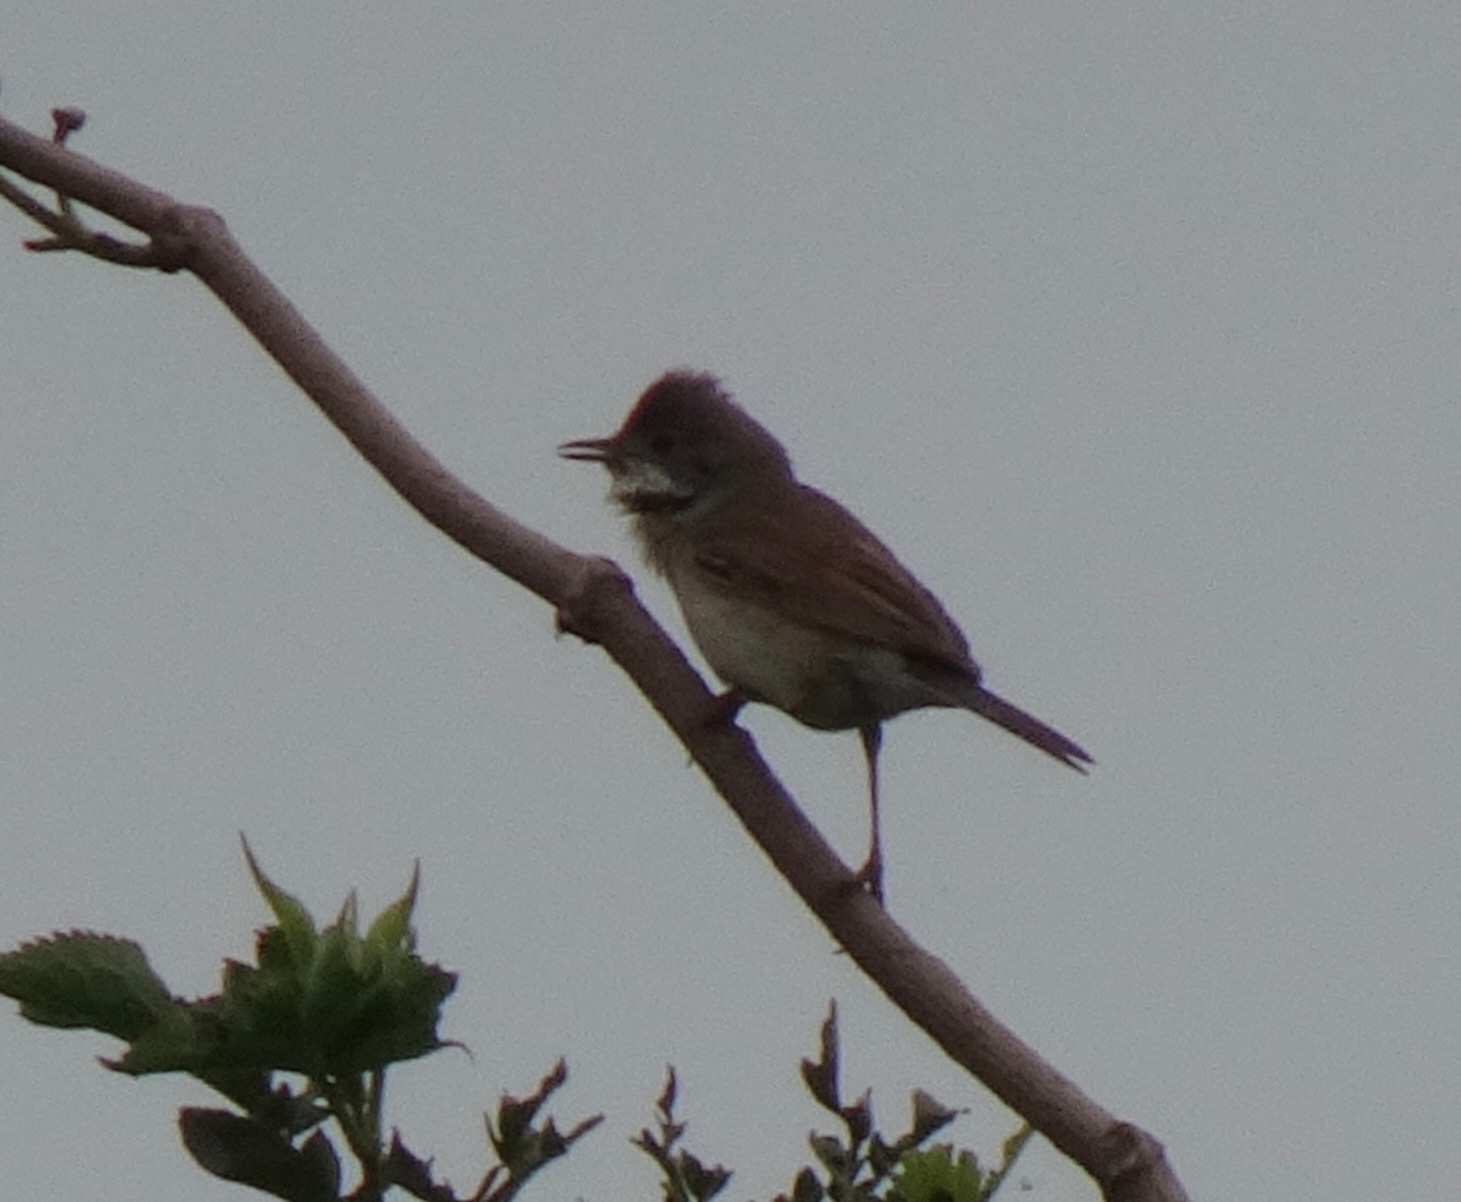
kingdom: Animalia
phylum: Chordata
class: Aves
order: Passeriformes
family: Sylviidae
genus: Sylvia
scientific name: Sylvia communis
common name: Common whitethroat
